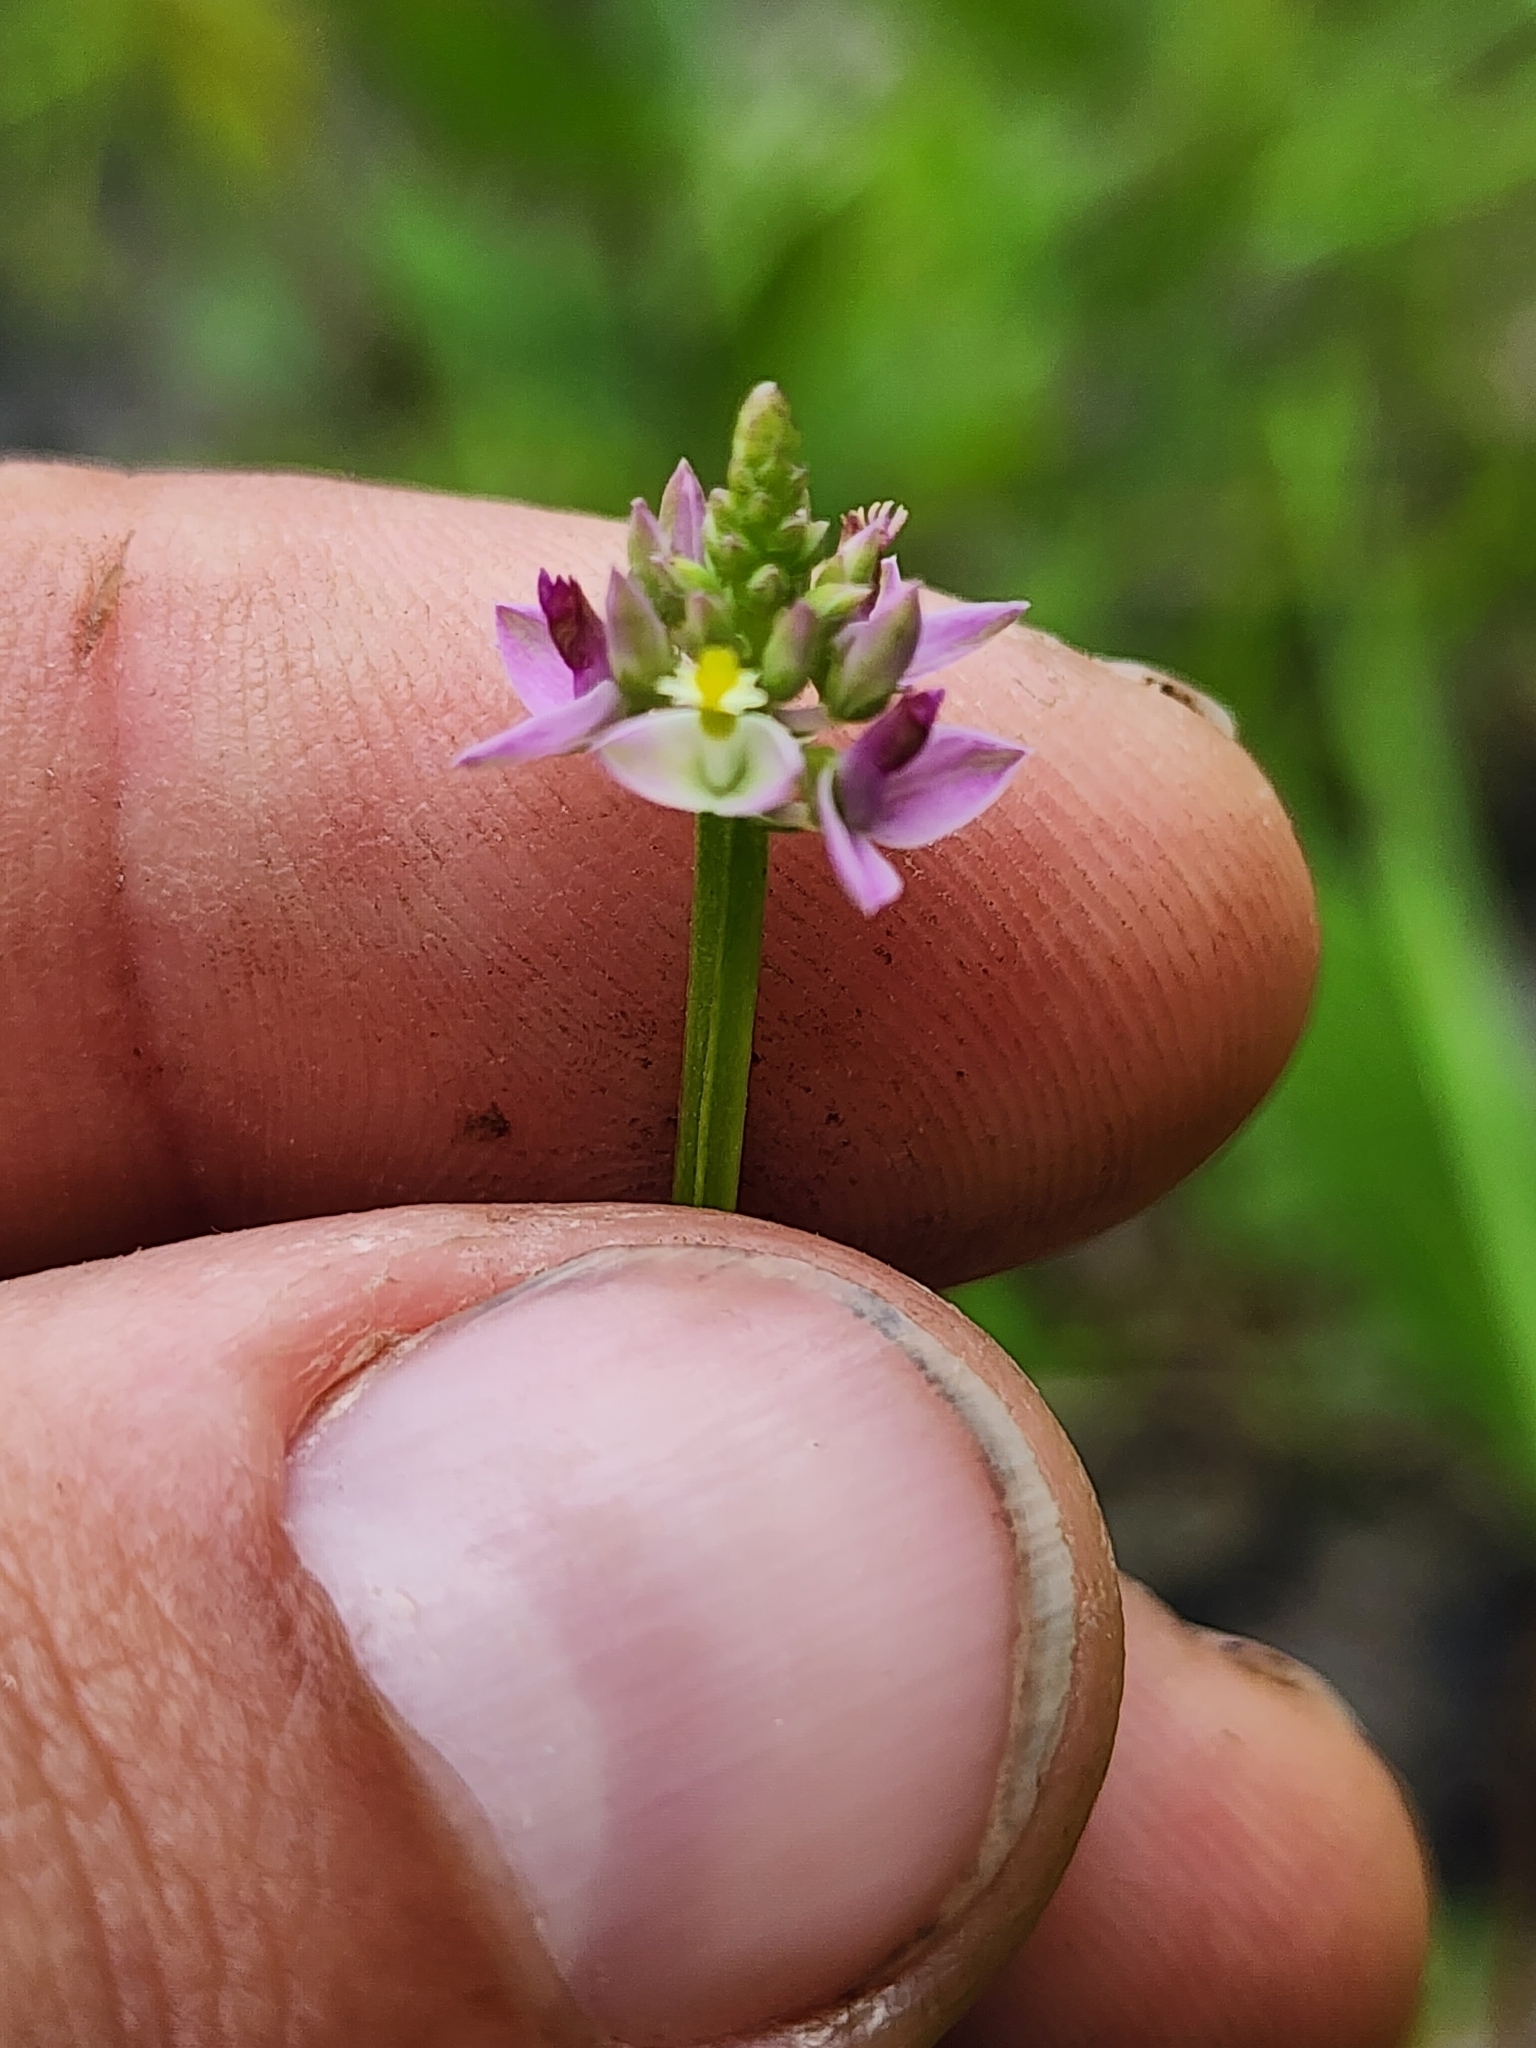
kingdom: Plantae
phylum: Tracheophyta
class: Magnoliopsida
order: Fabales
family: Polygalaceae
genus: Polygala
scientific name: Polygala brevifolia
